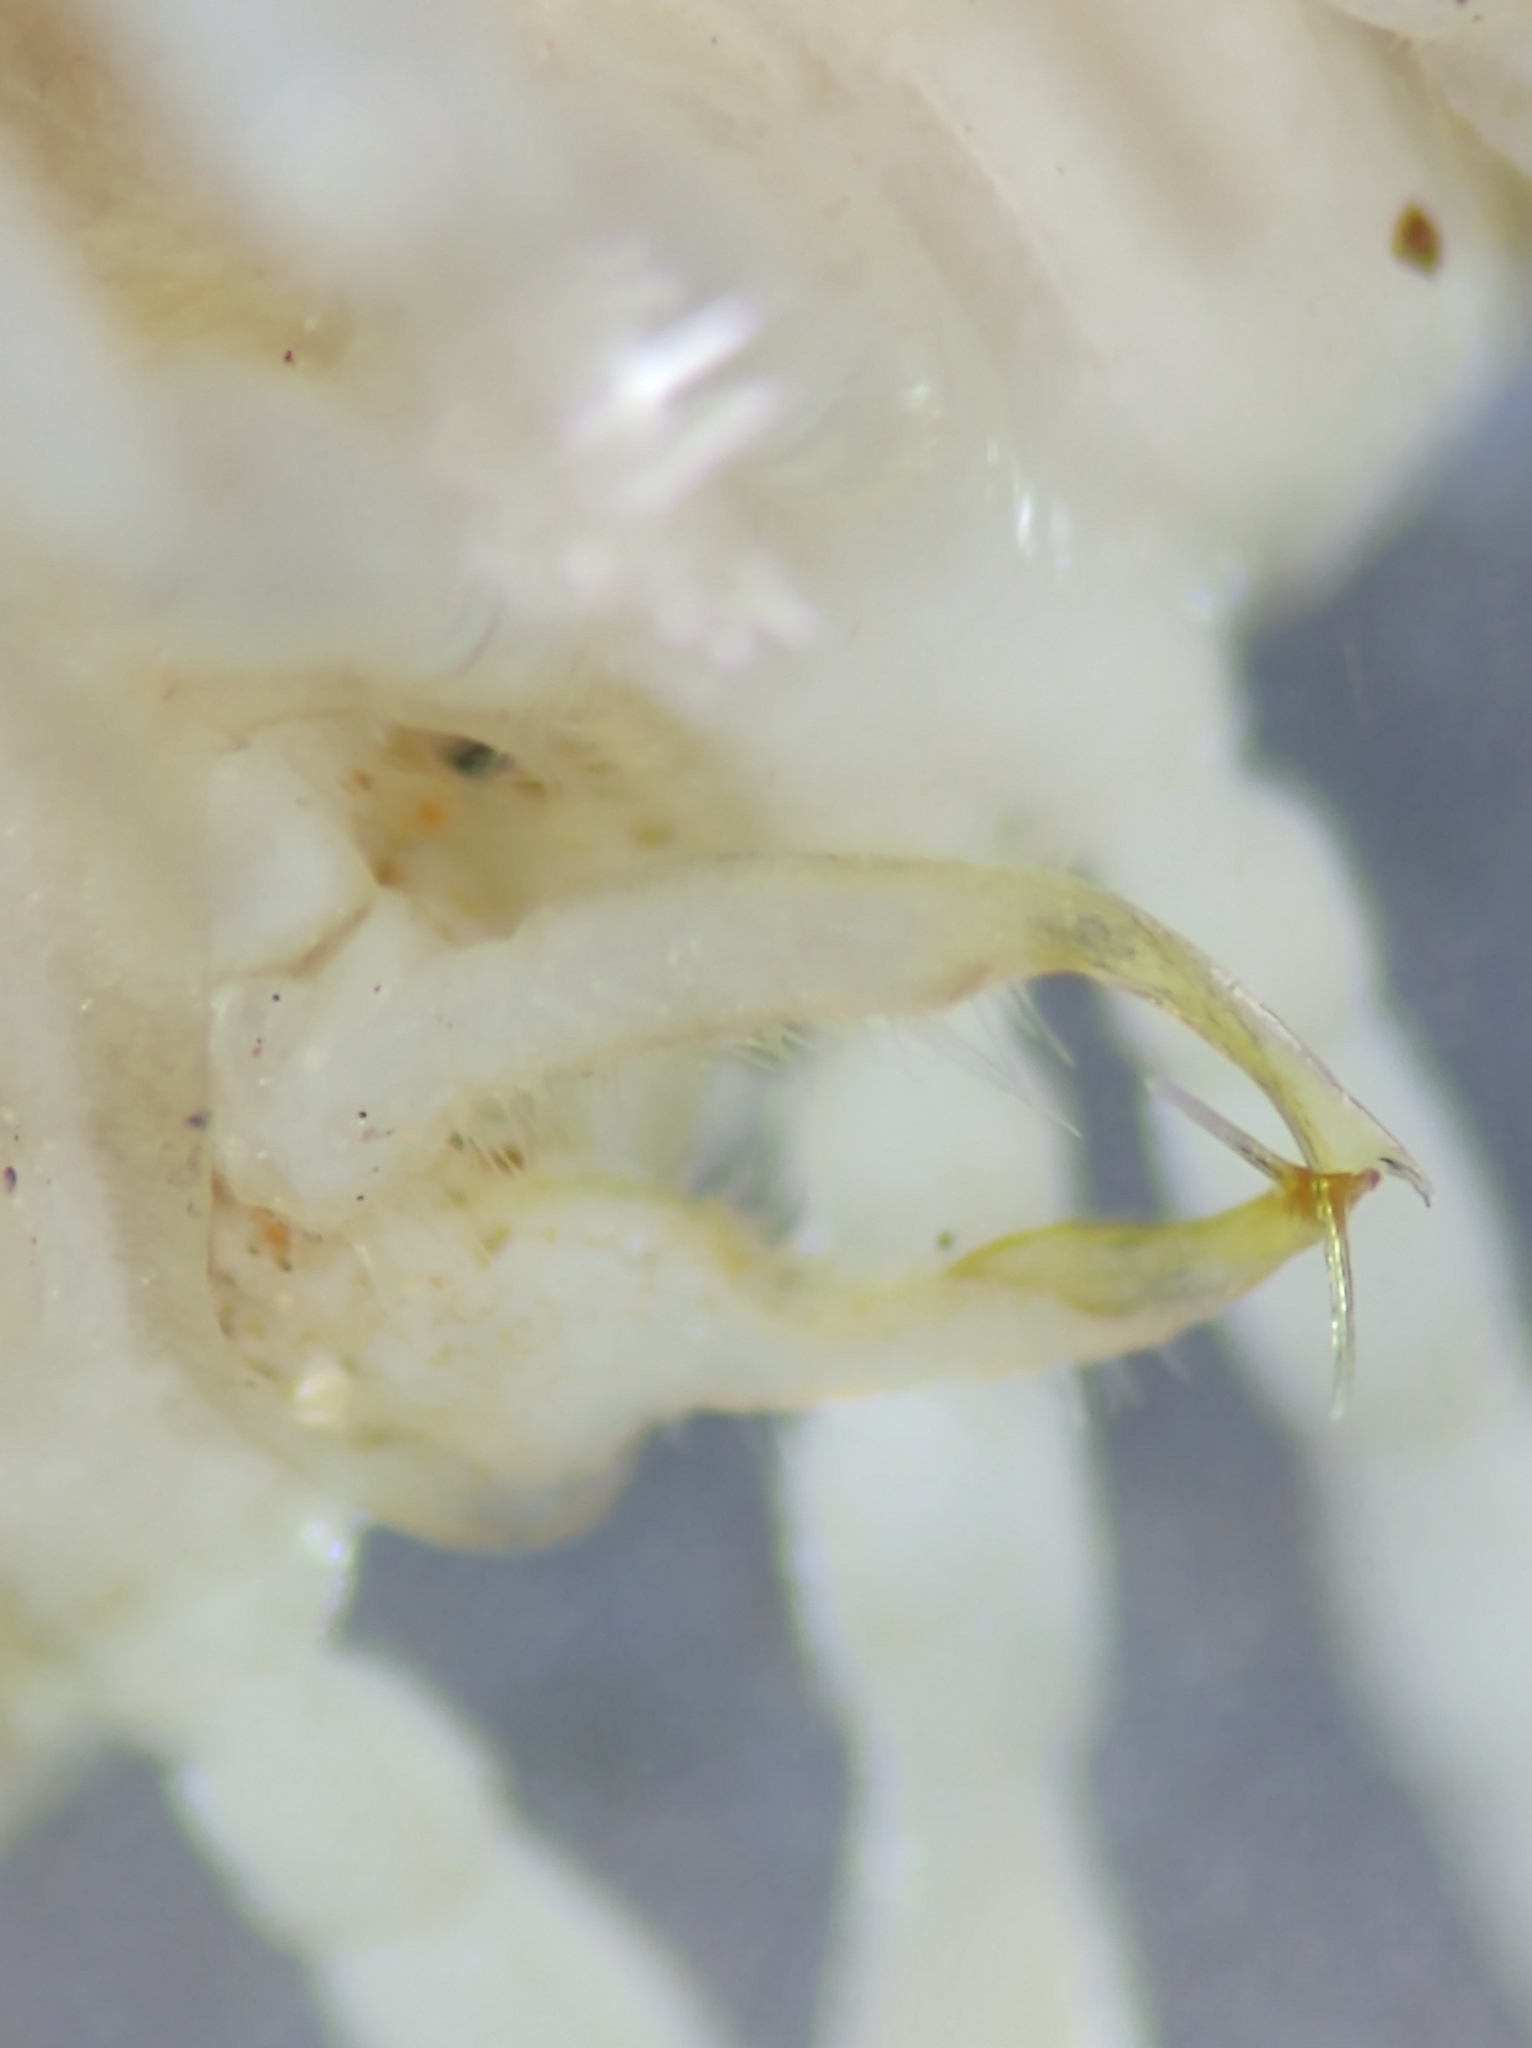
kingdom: Animalia
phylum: Arthropoda
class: Diplopoda
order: Polydesmida
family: Xystodesmidae
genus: Euryurus
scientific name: Euryurus maculatus
